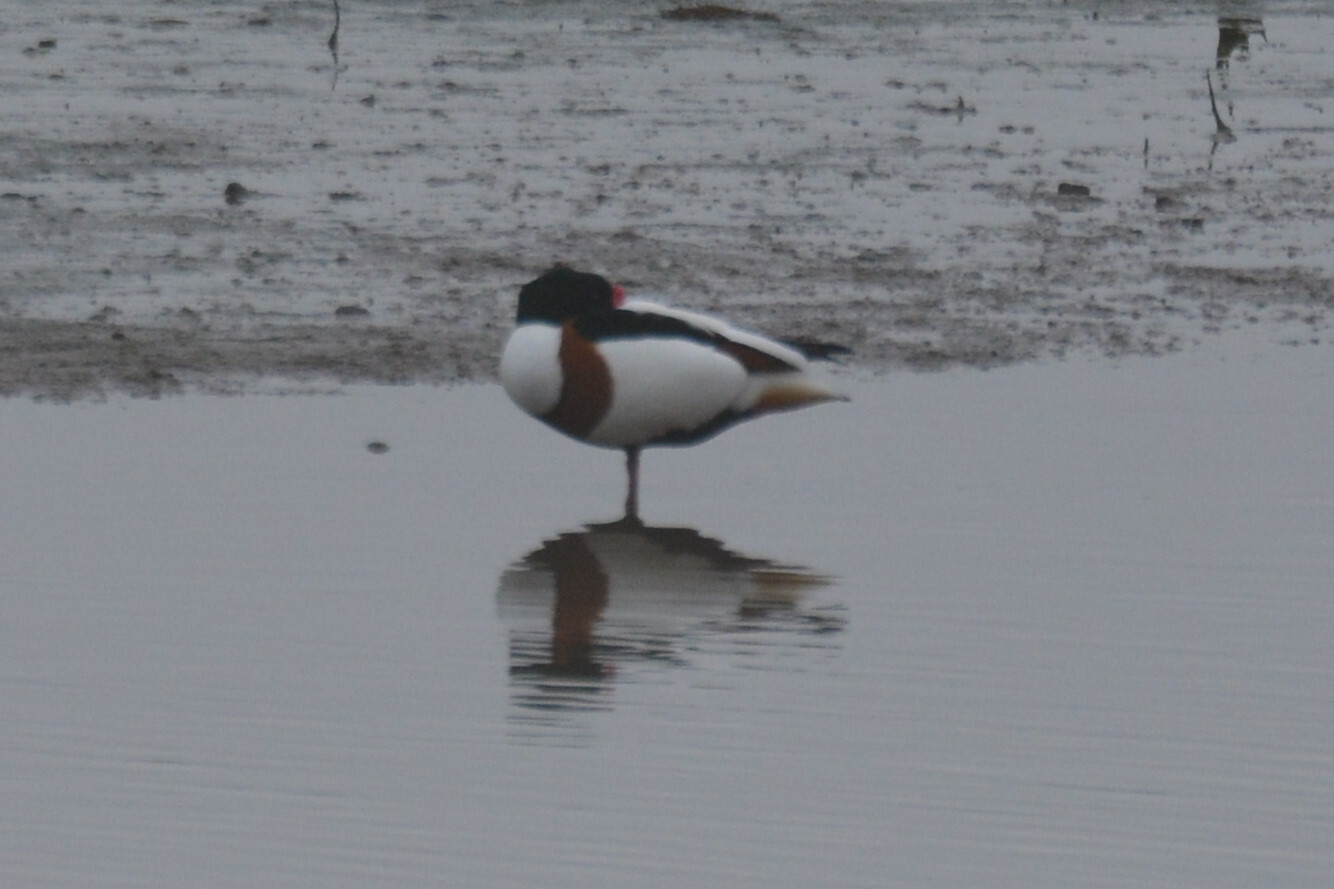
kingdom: Animalia
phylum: Chordata
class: Aves
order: Anseriformes
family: Anatidae
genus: Tadorna
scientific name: Tadorna tadorna
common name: Common shelduck
